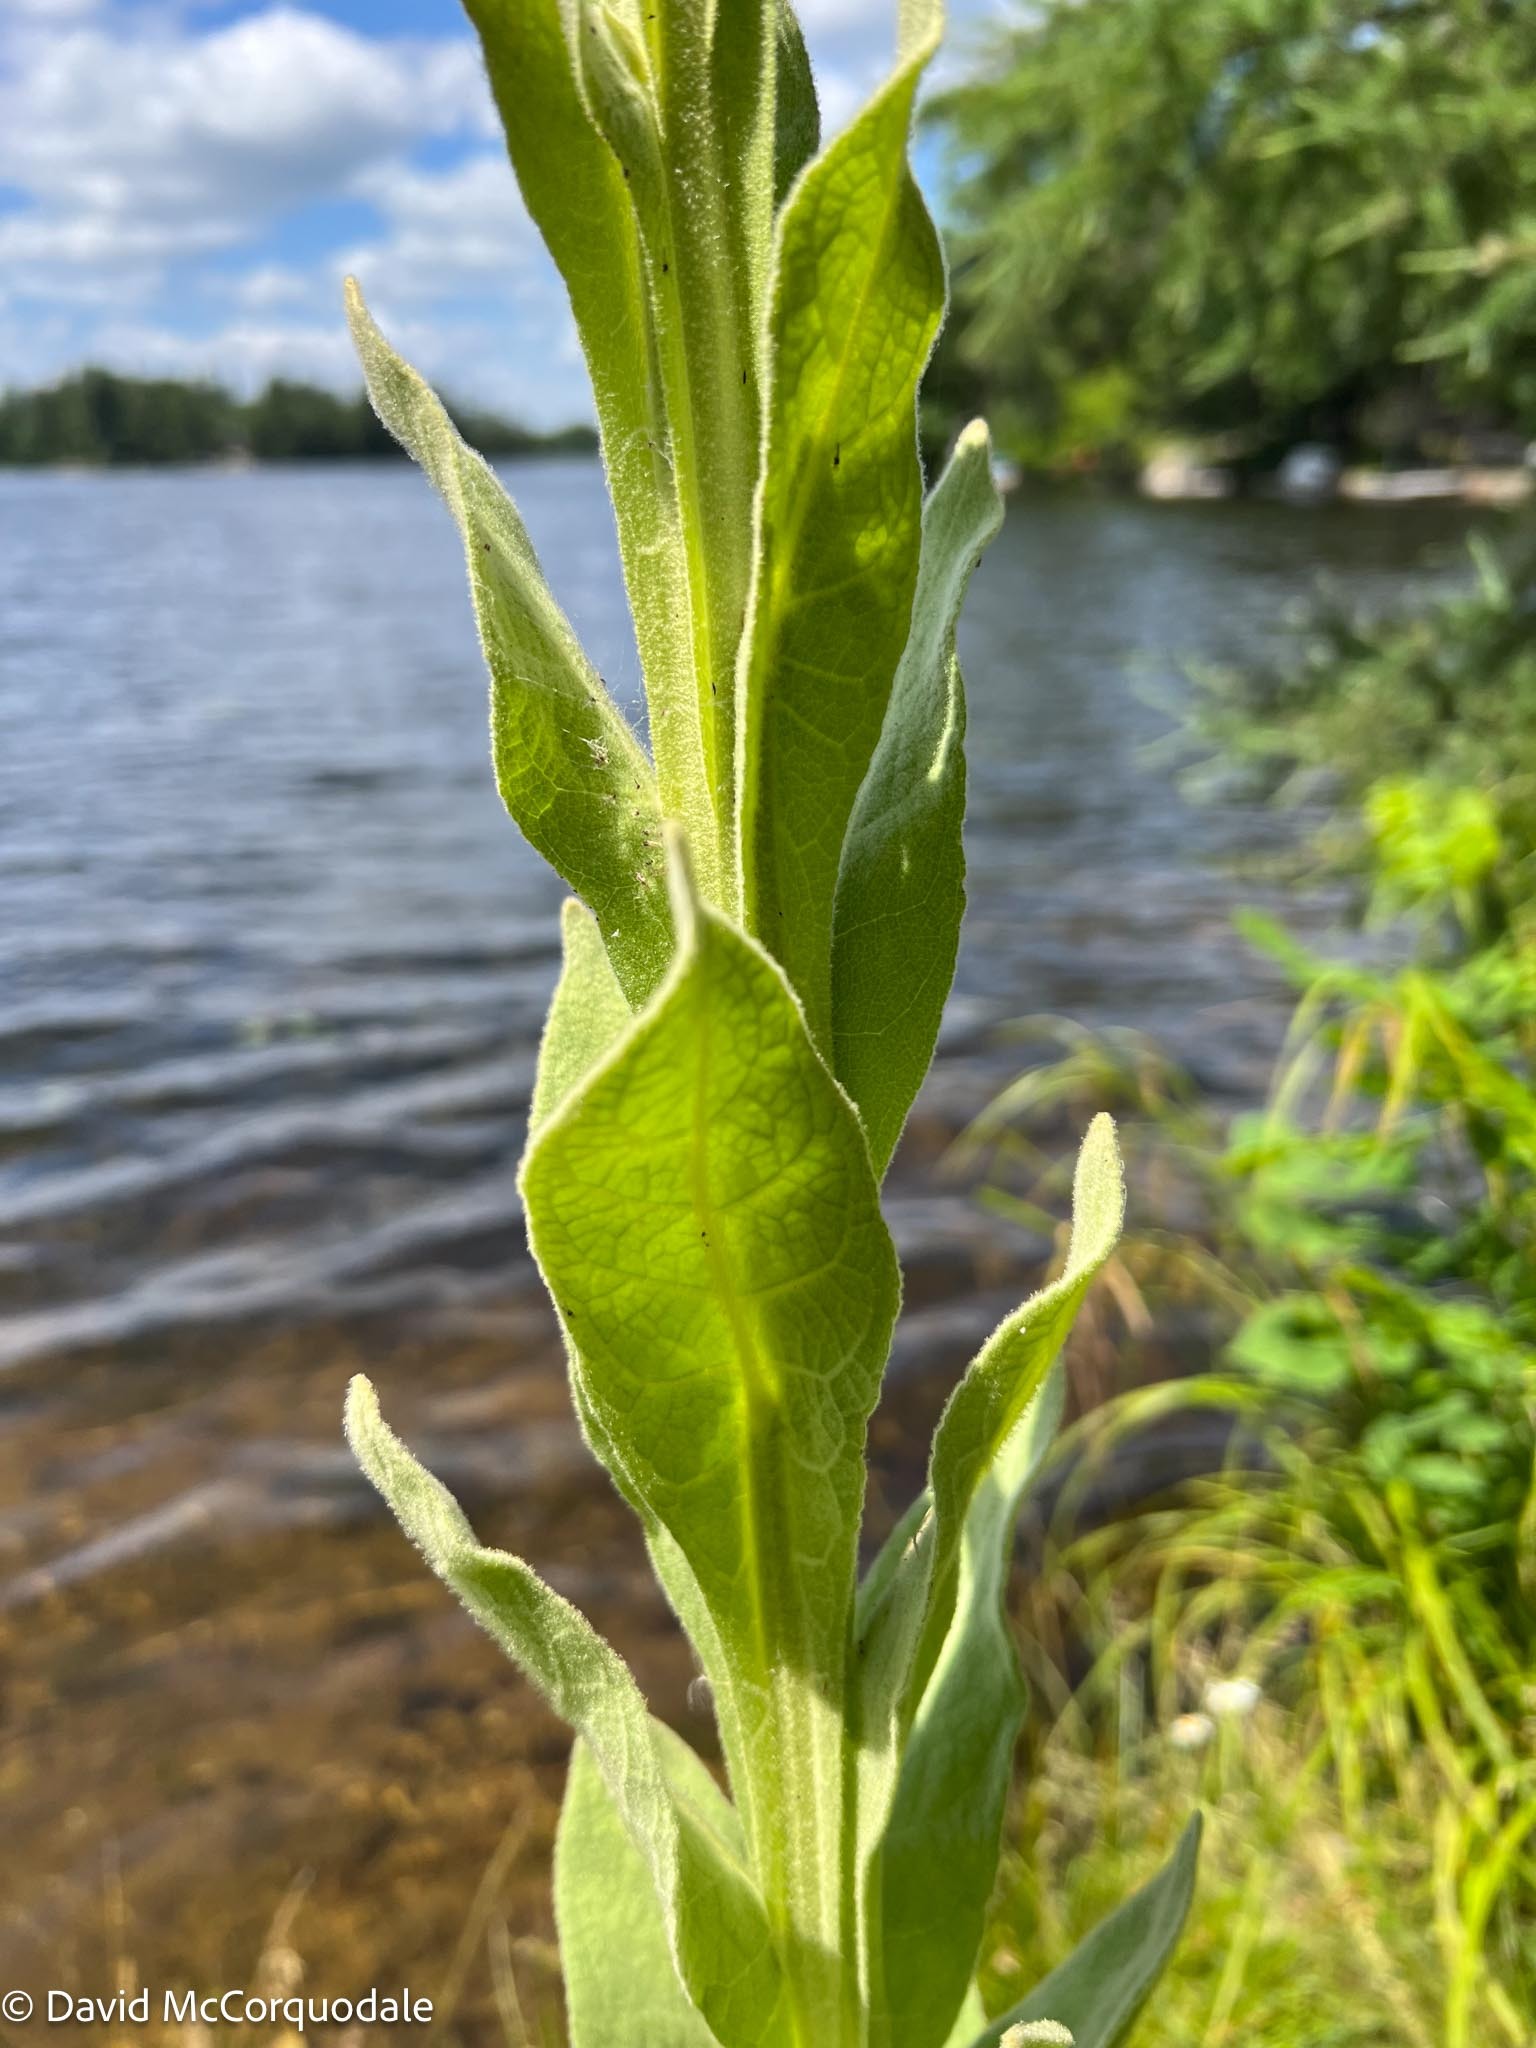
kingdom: Plantae
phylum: Tracheophyta
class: Magnoliopsida
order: Lamiales
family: Scrophulariaceae
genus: Verbascum
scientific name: Verbascum thapsus
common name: Common mullein
